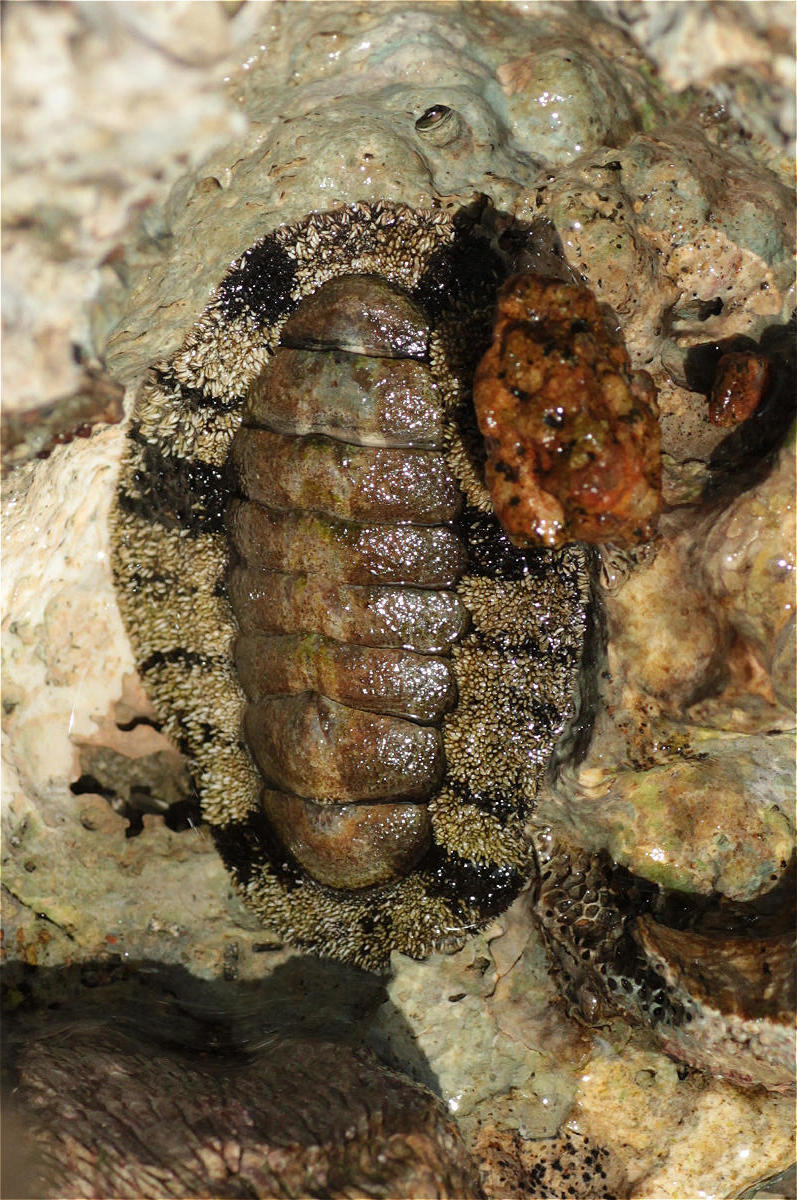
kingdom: Animalia
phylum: Mollusca
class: Polyplacophora
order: Chitonida
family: Chitonidae
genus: Acanthopleura
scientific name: Acanthopleura vaillantii
